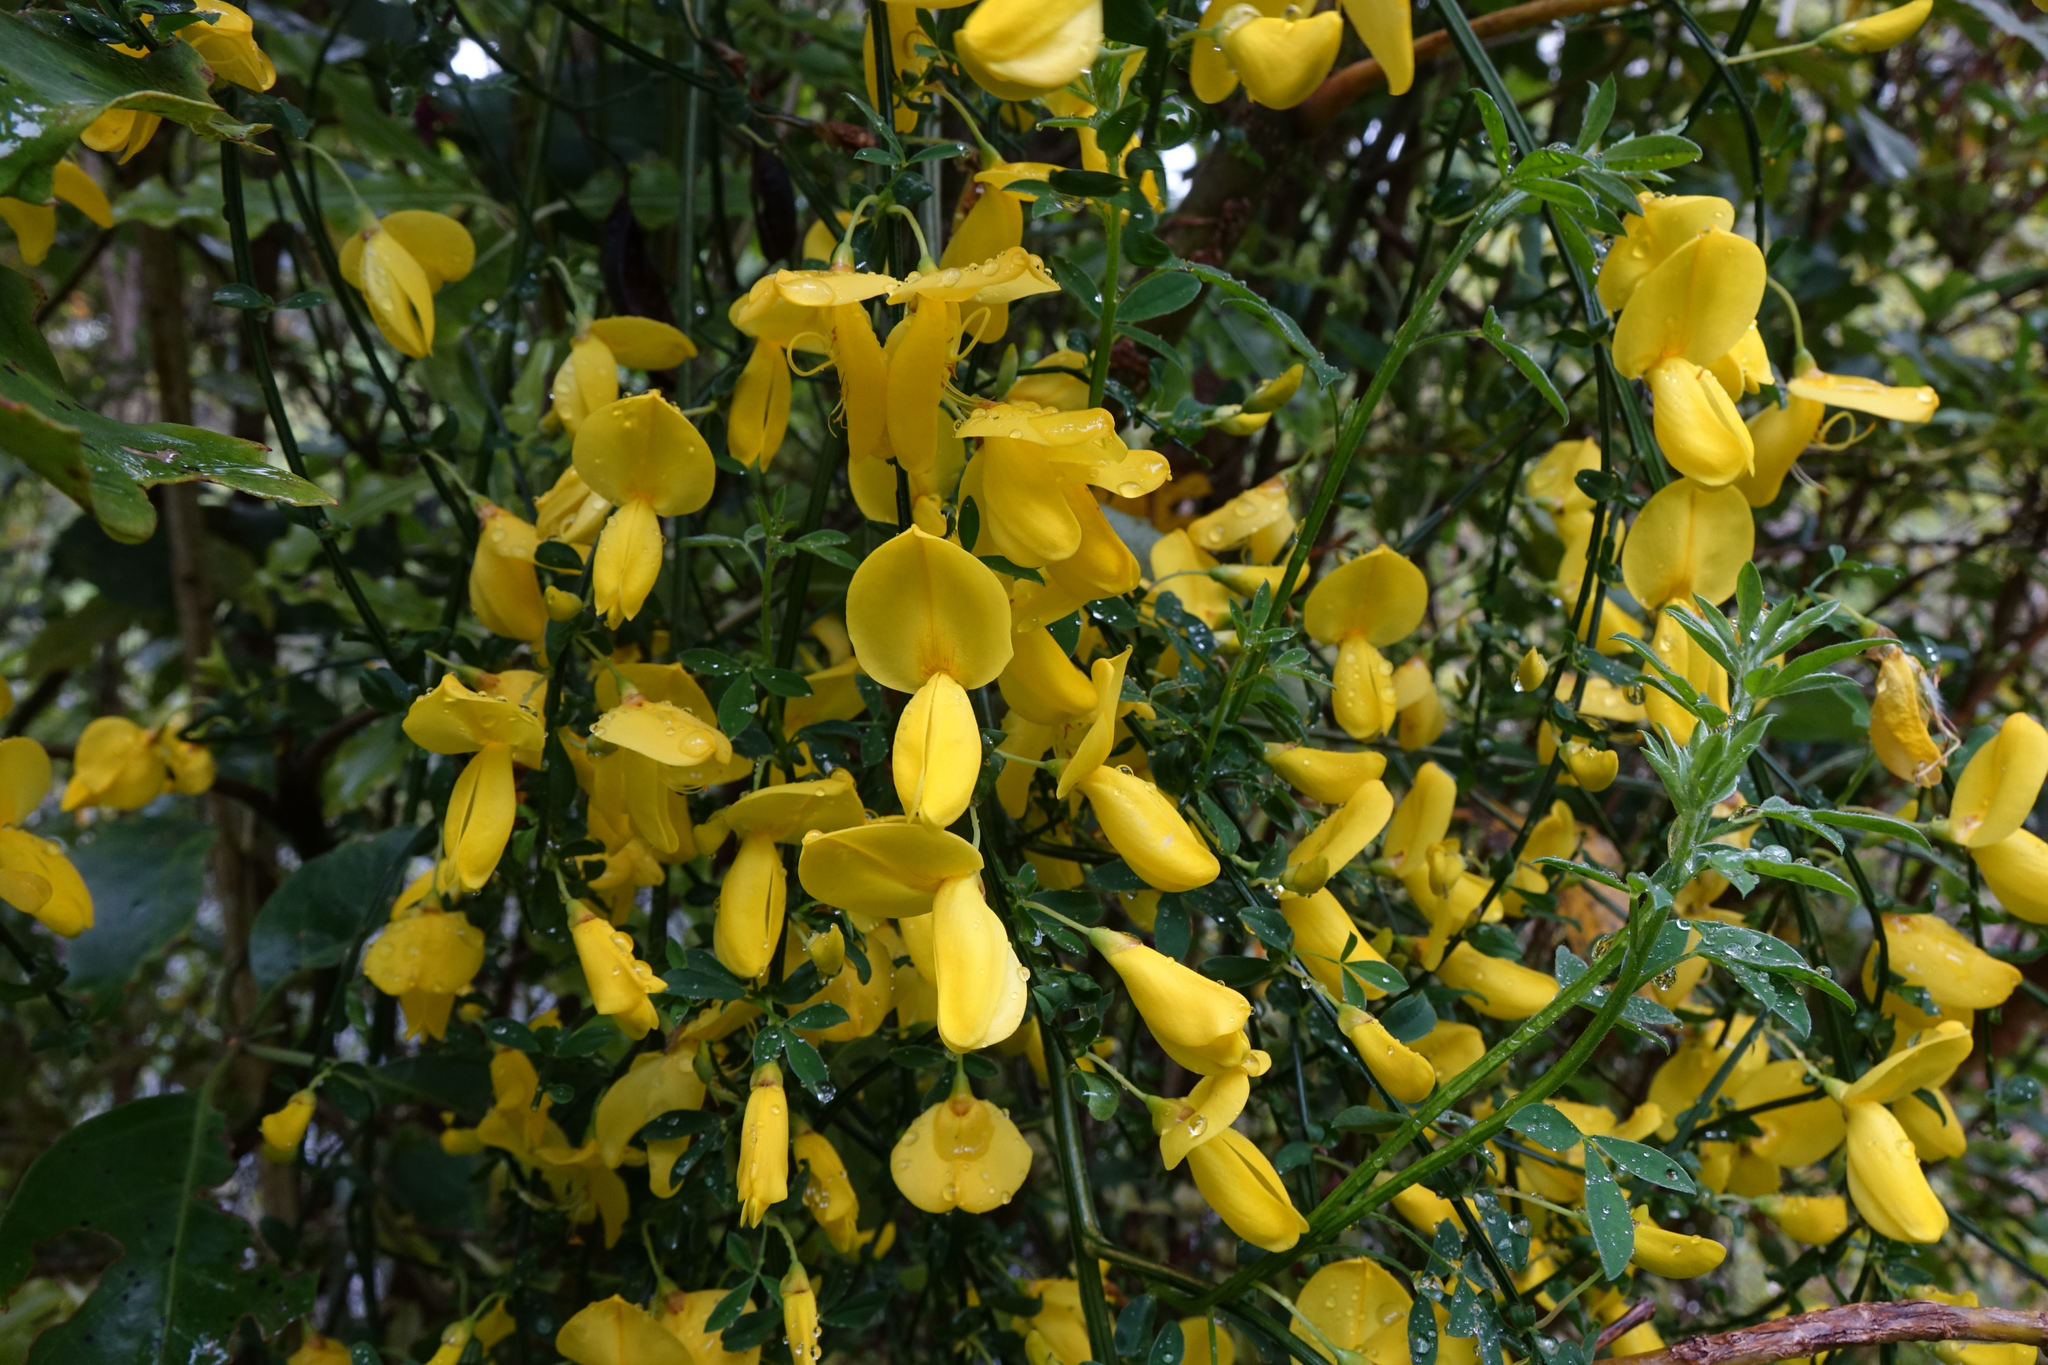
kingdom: Plantae
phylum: Tracheophyta
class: Magnoliopsida
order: Fabales
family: Fabaceae
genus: Cytisus
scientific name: Cytisus scoparius
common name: Scotch broom
